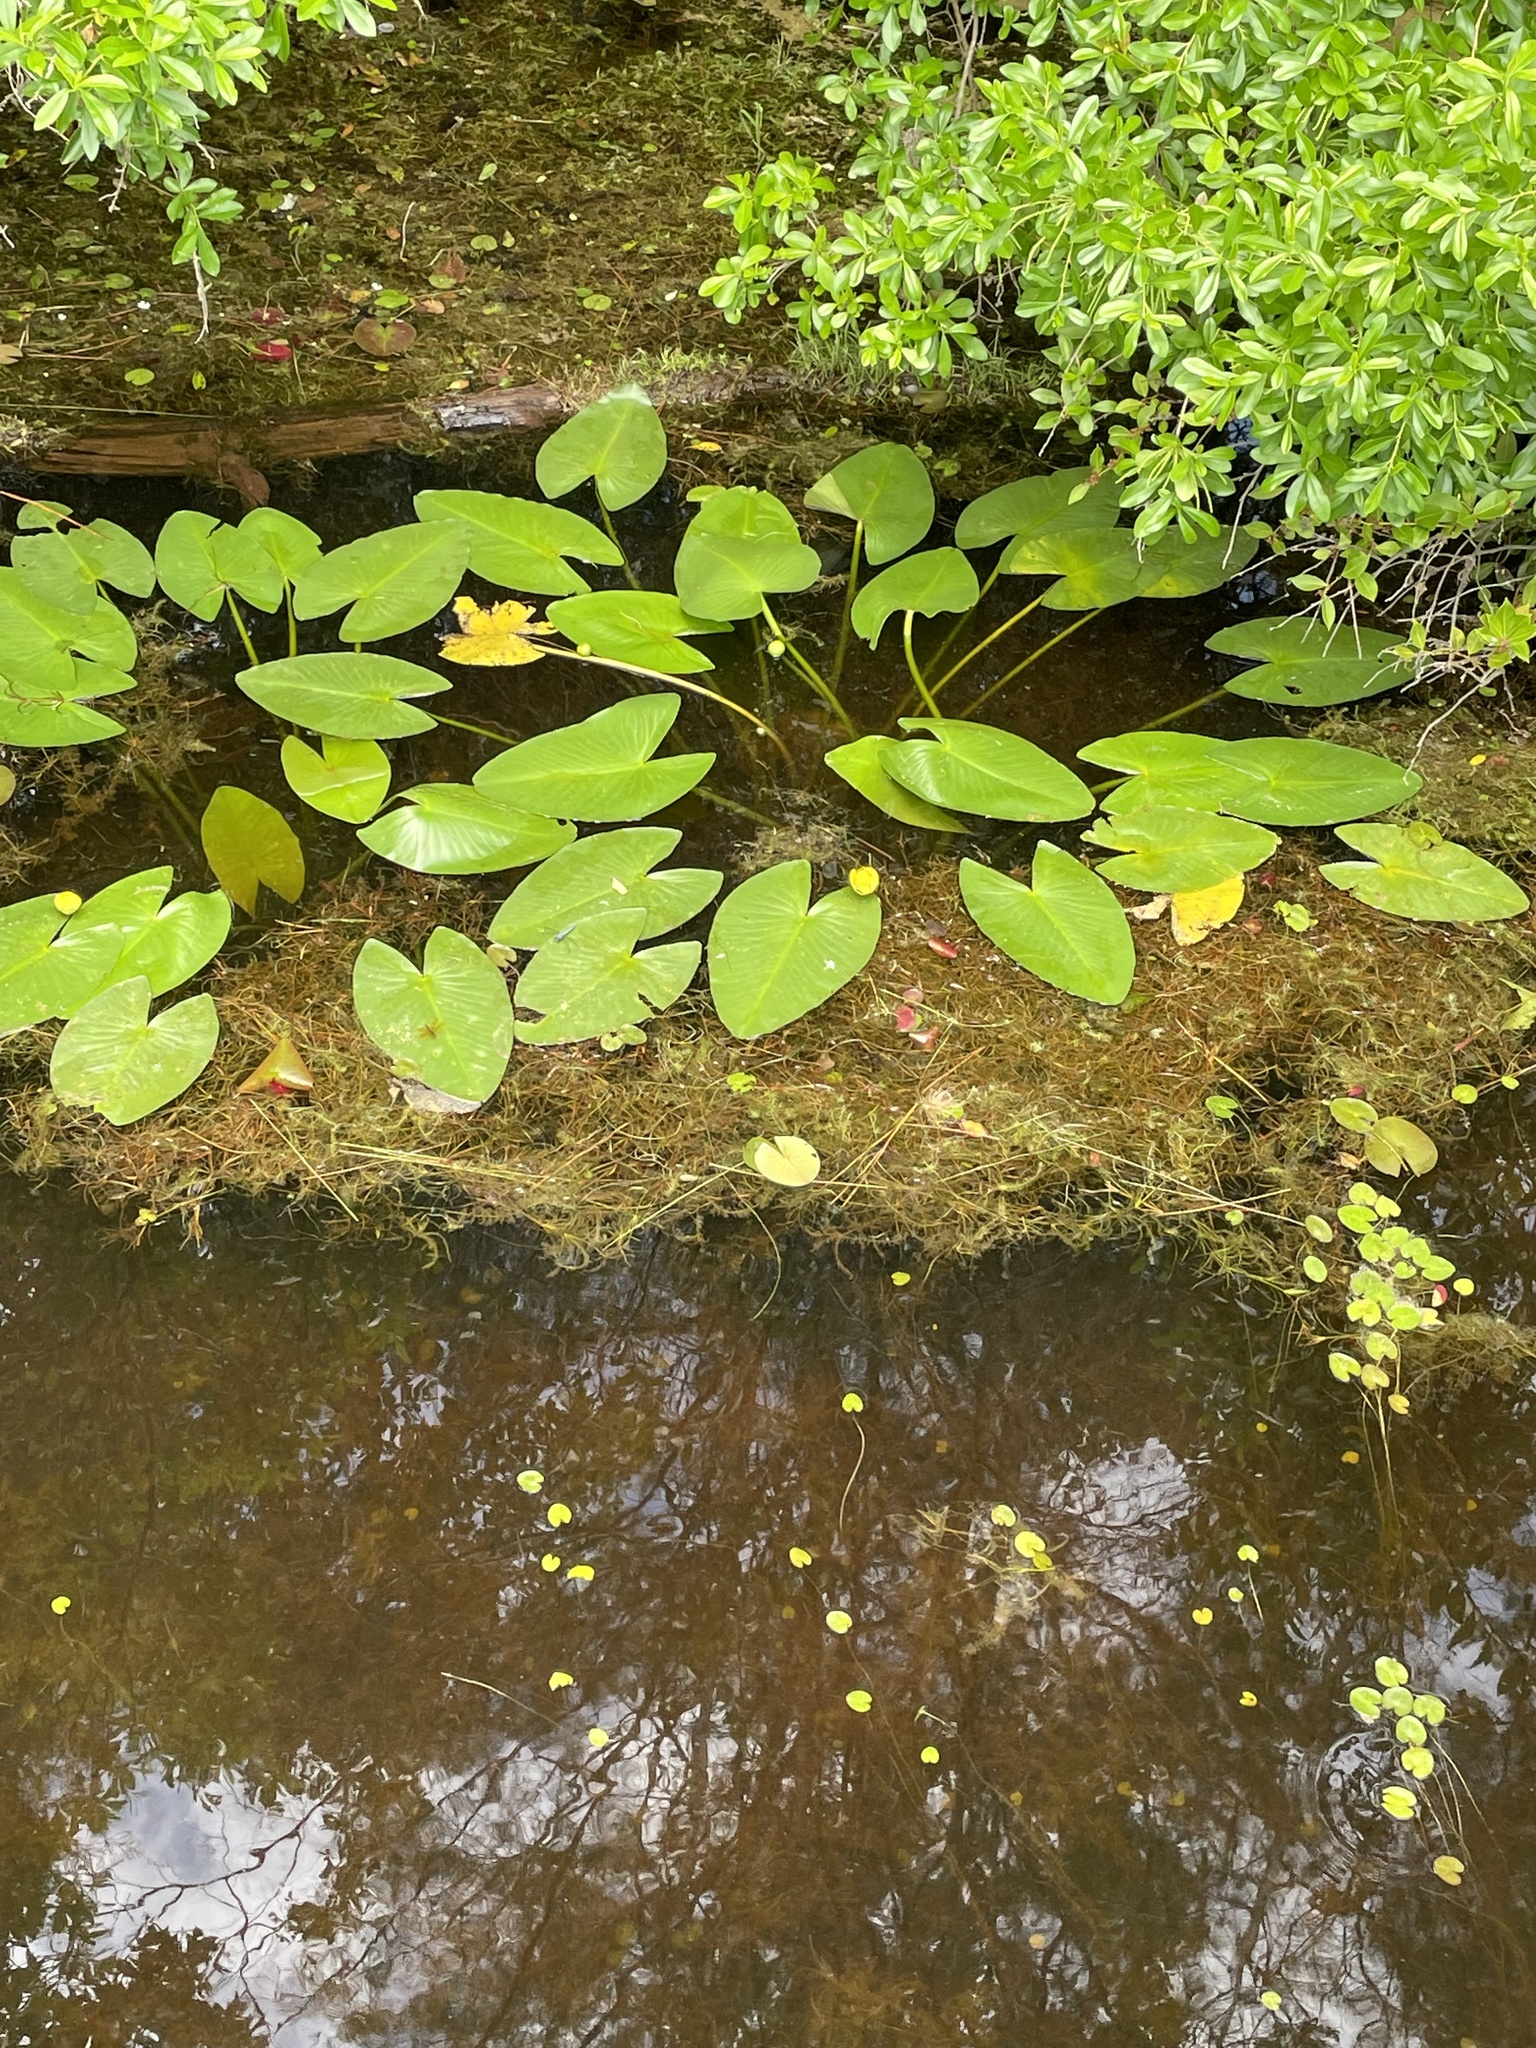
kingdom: Plantae
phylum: Tracheophyta
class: Magnoliopsida
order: Nymphaeales
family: Nymphaeaceae
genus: Nuphar
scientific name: Nuphar advena
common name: Spatter-dock
